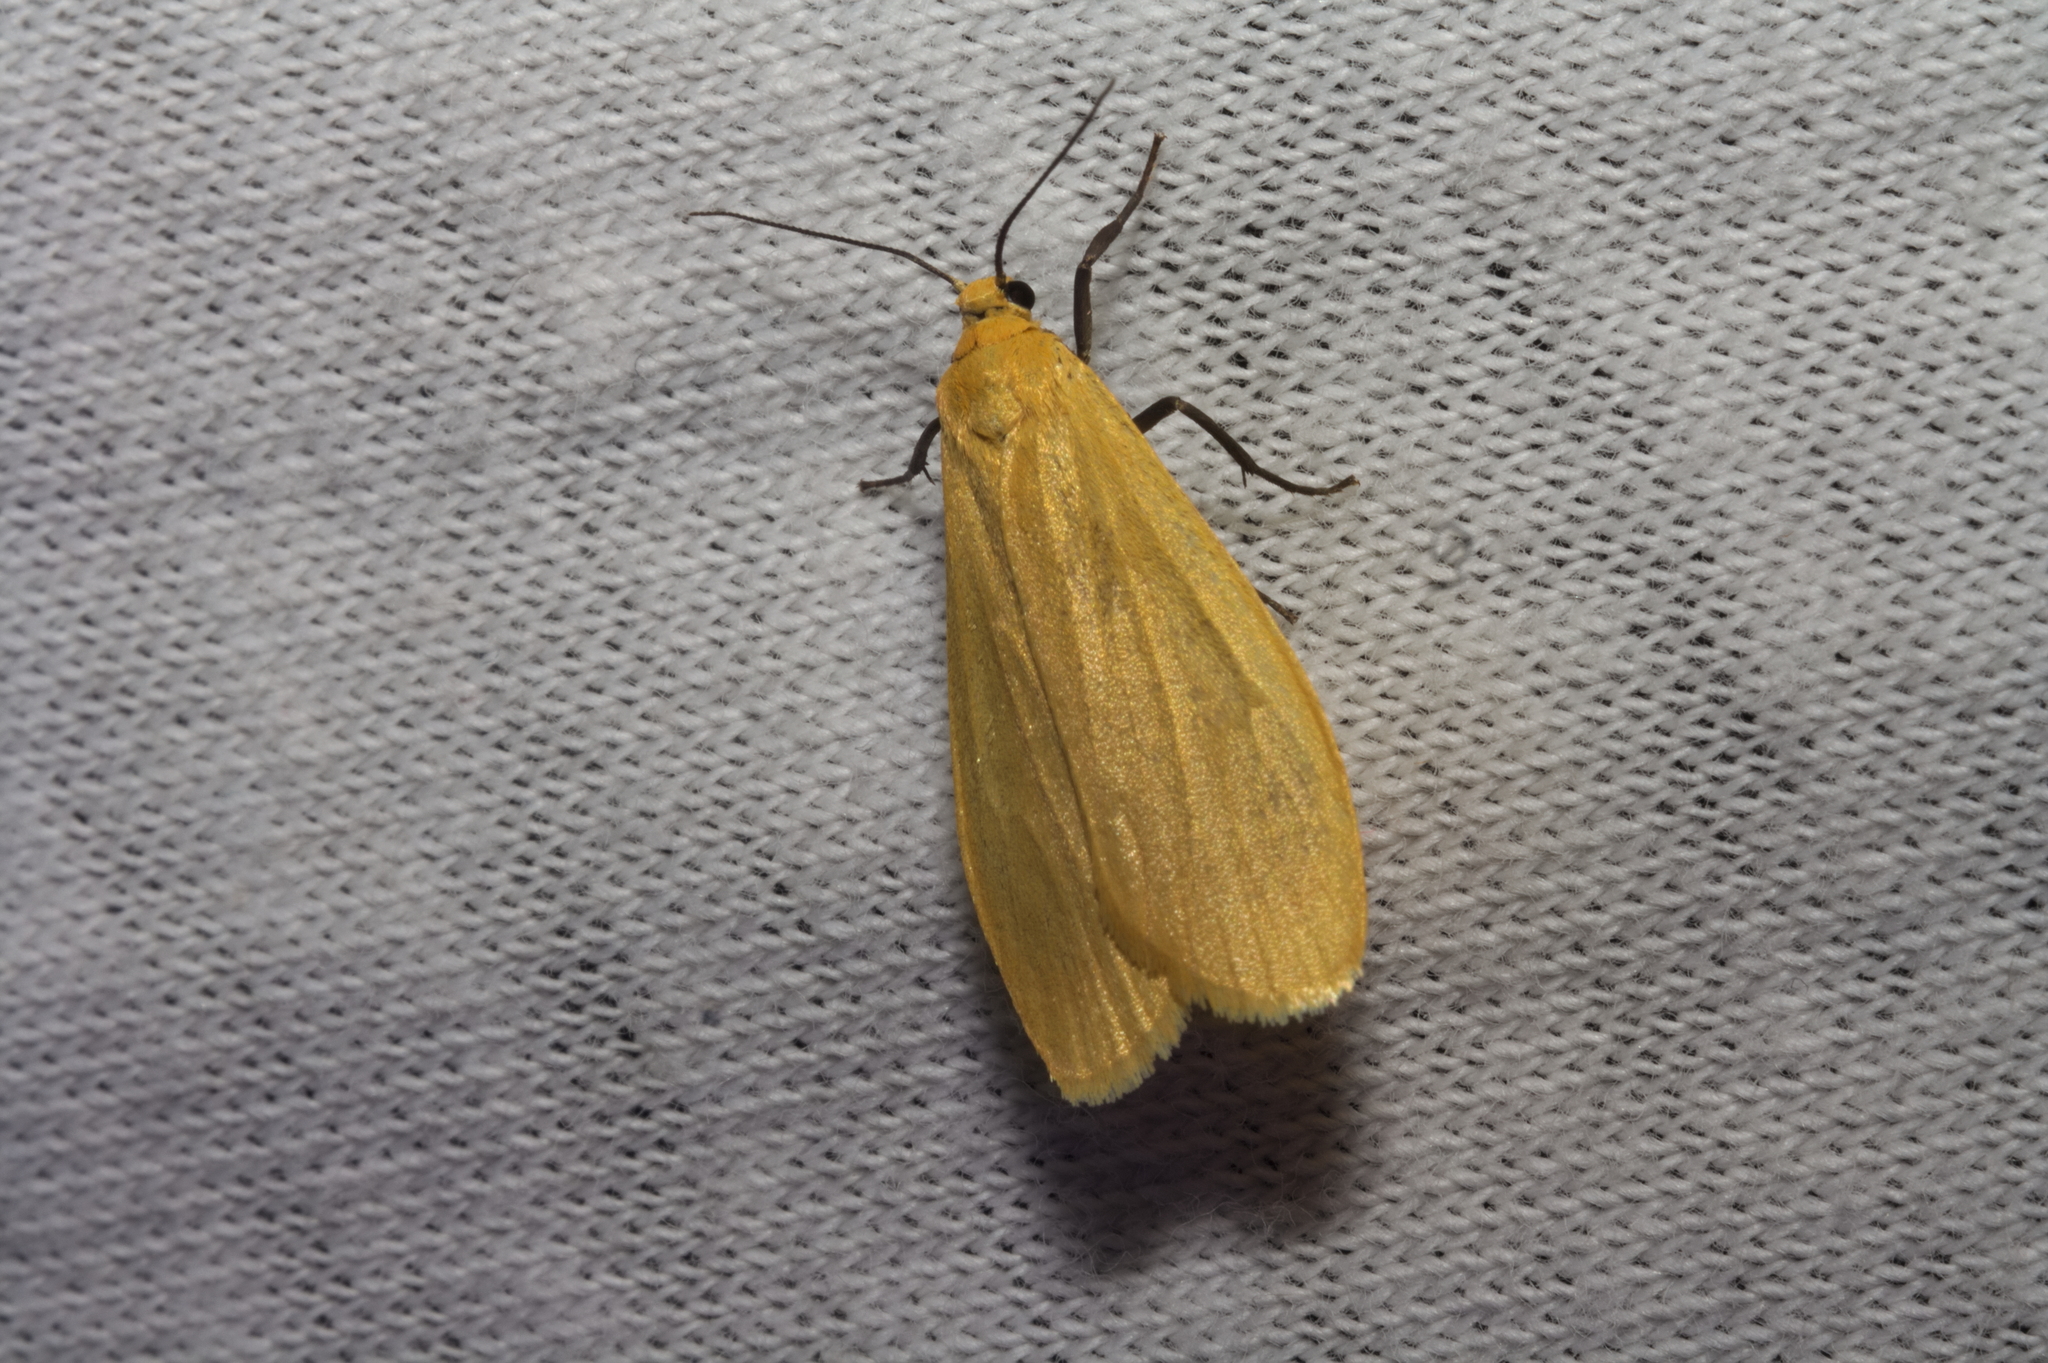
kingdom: Animalia
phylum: Arthropoda
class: Insecta
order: Lepidoptera
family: Erebidae
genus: Wittia
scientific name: Wittia sororcula
